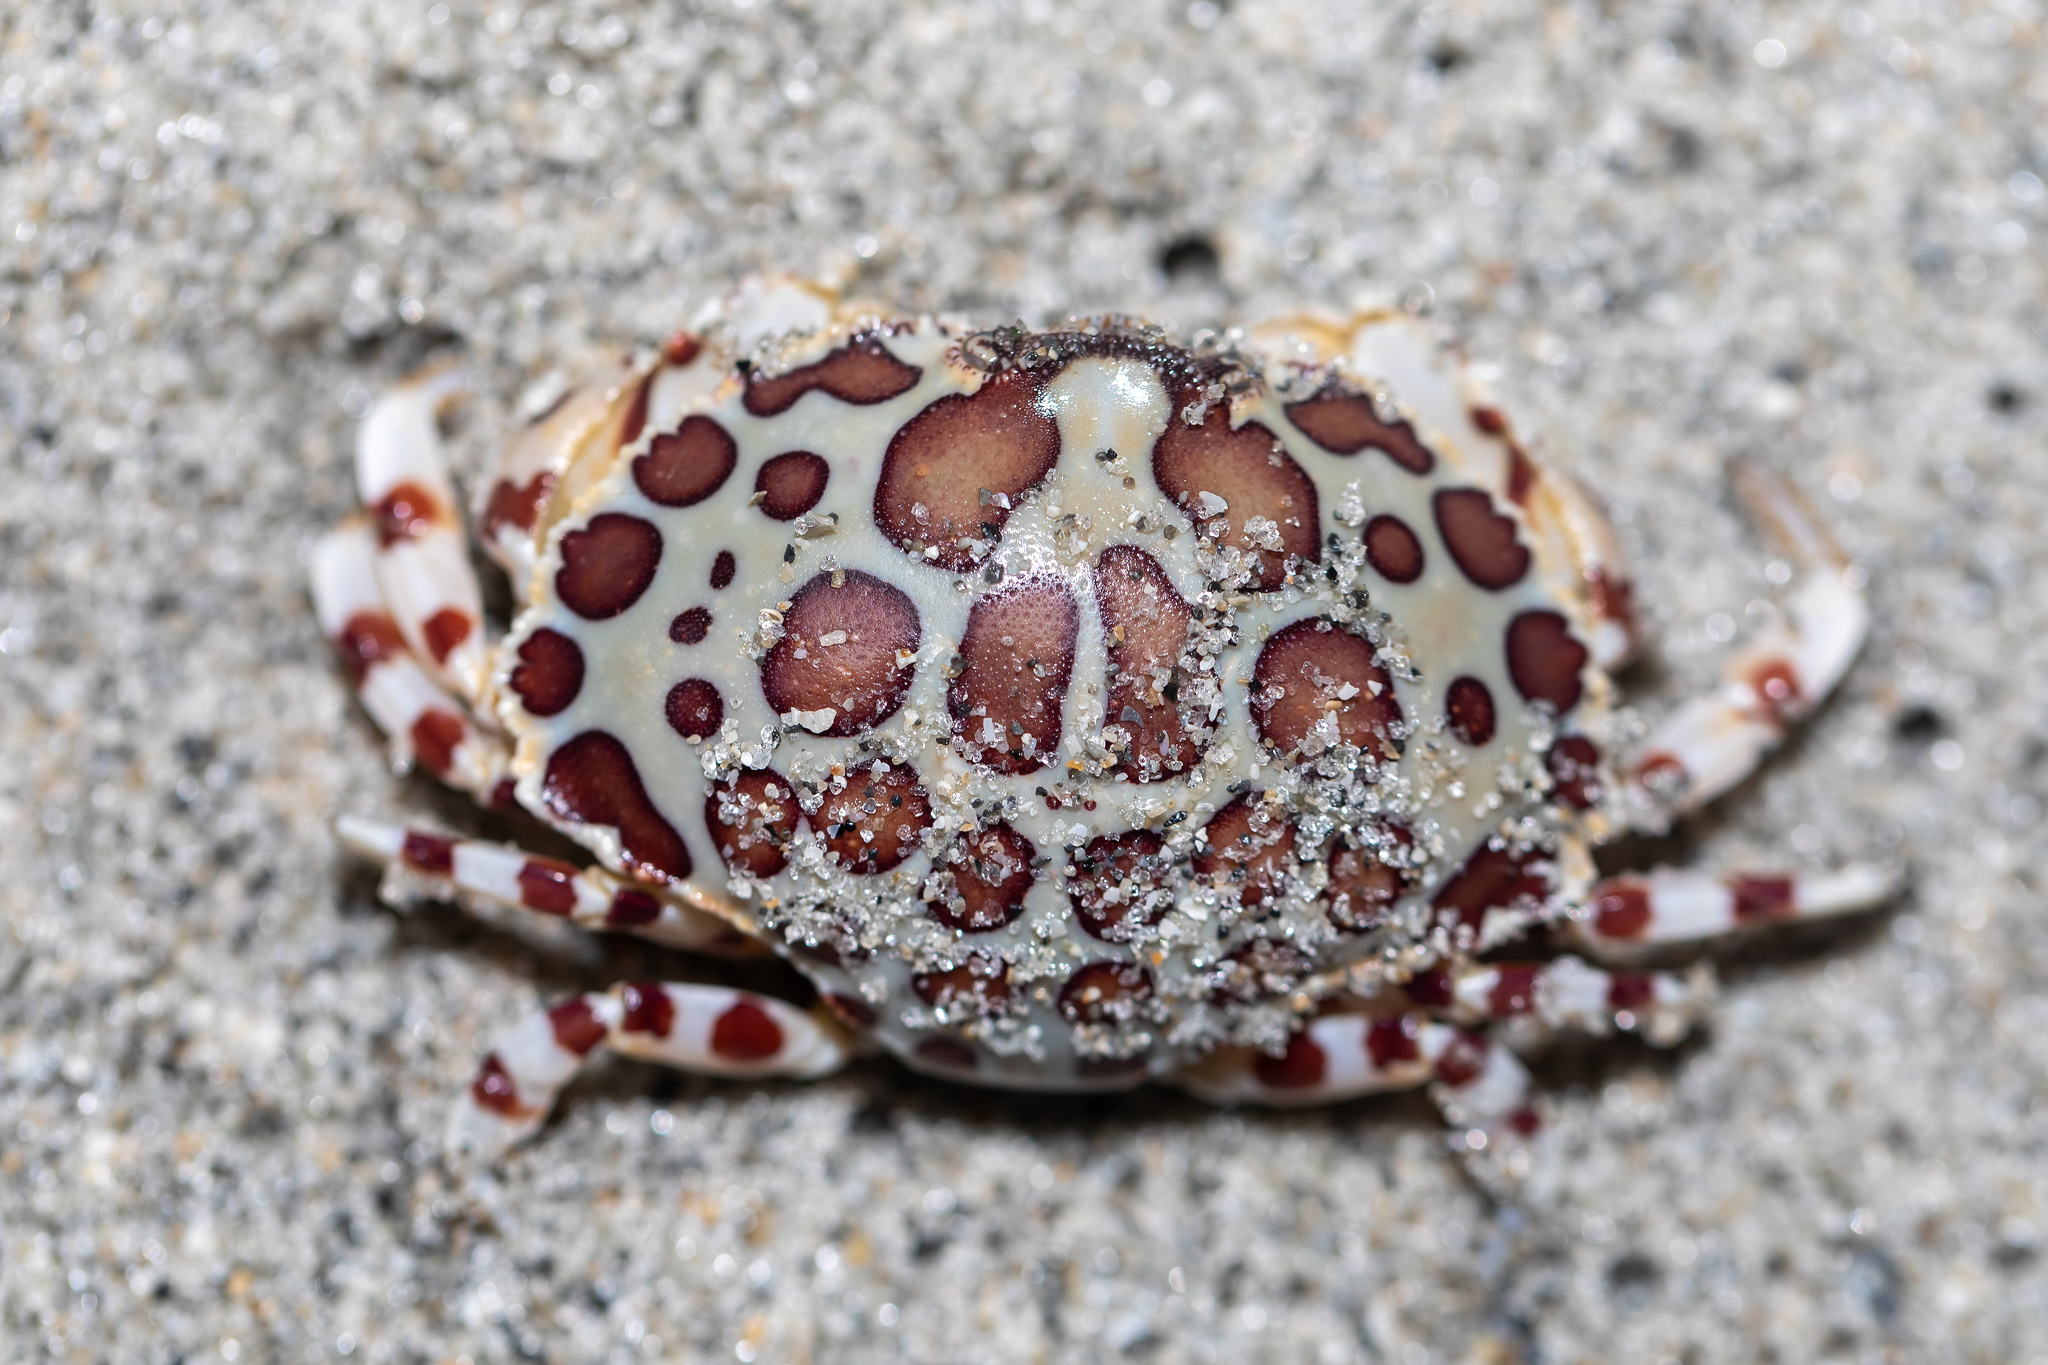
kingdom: Animalia
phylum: Arthropoda
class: Malacostraca
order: Decapoda
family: Aethridae
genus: Hepatus
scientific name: Hepatus epheliticus
